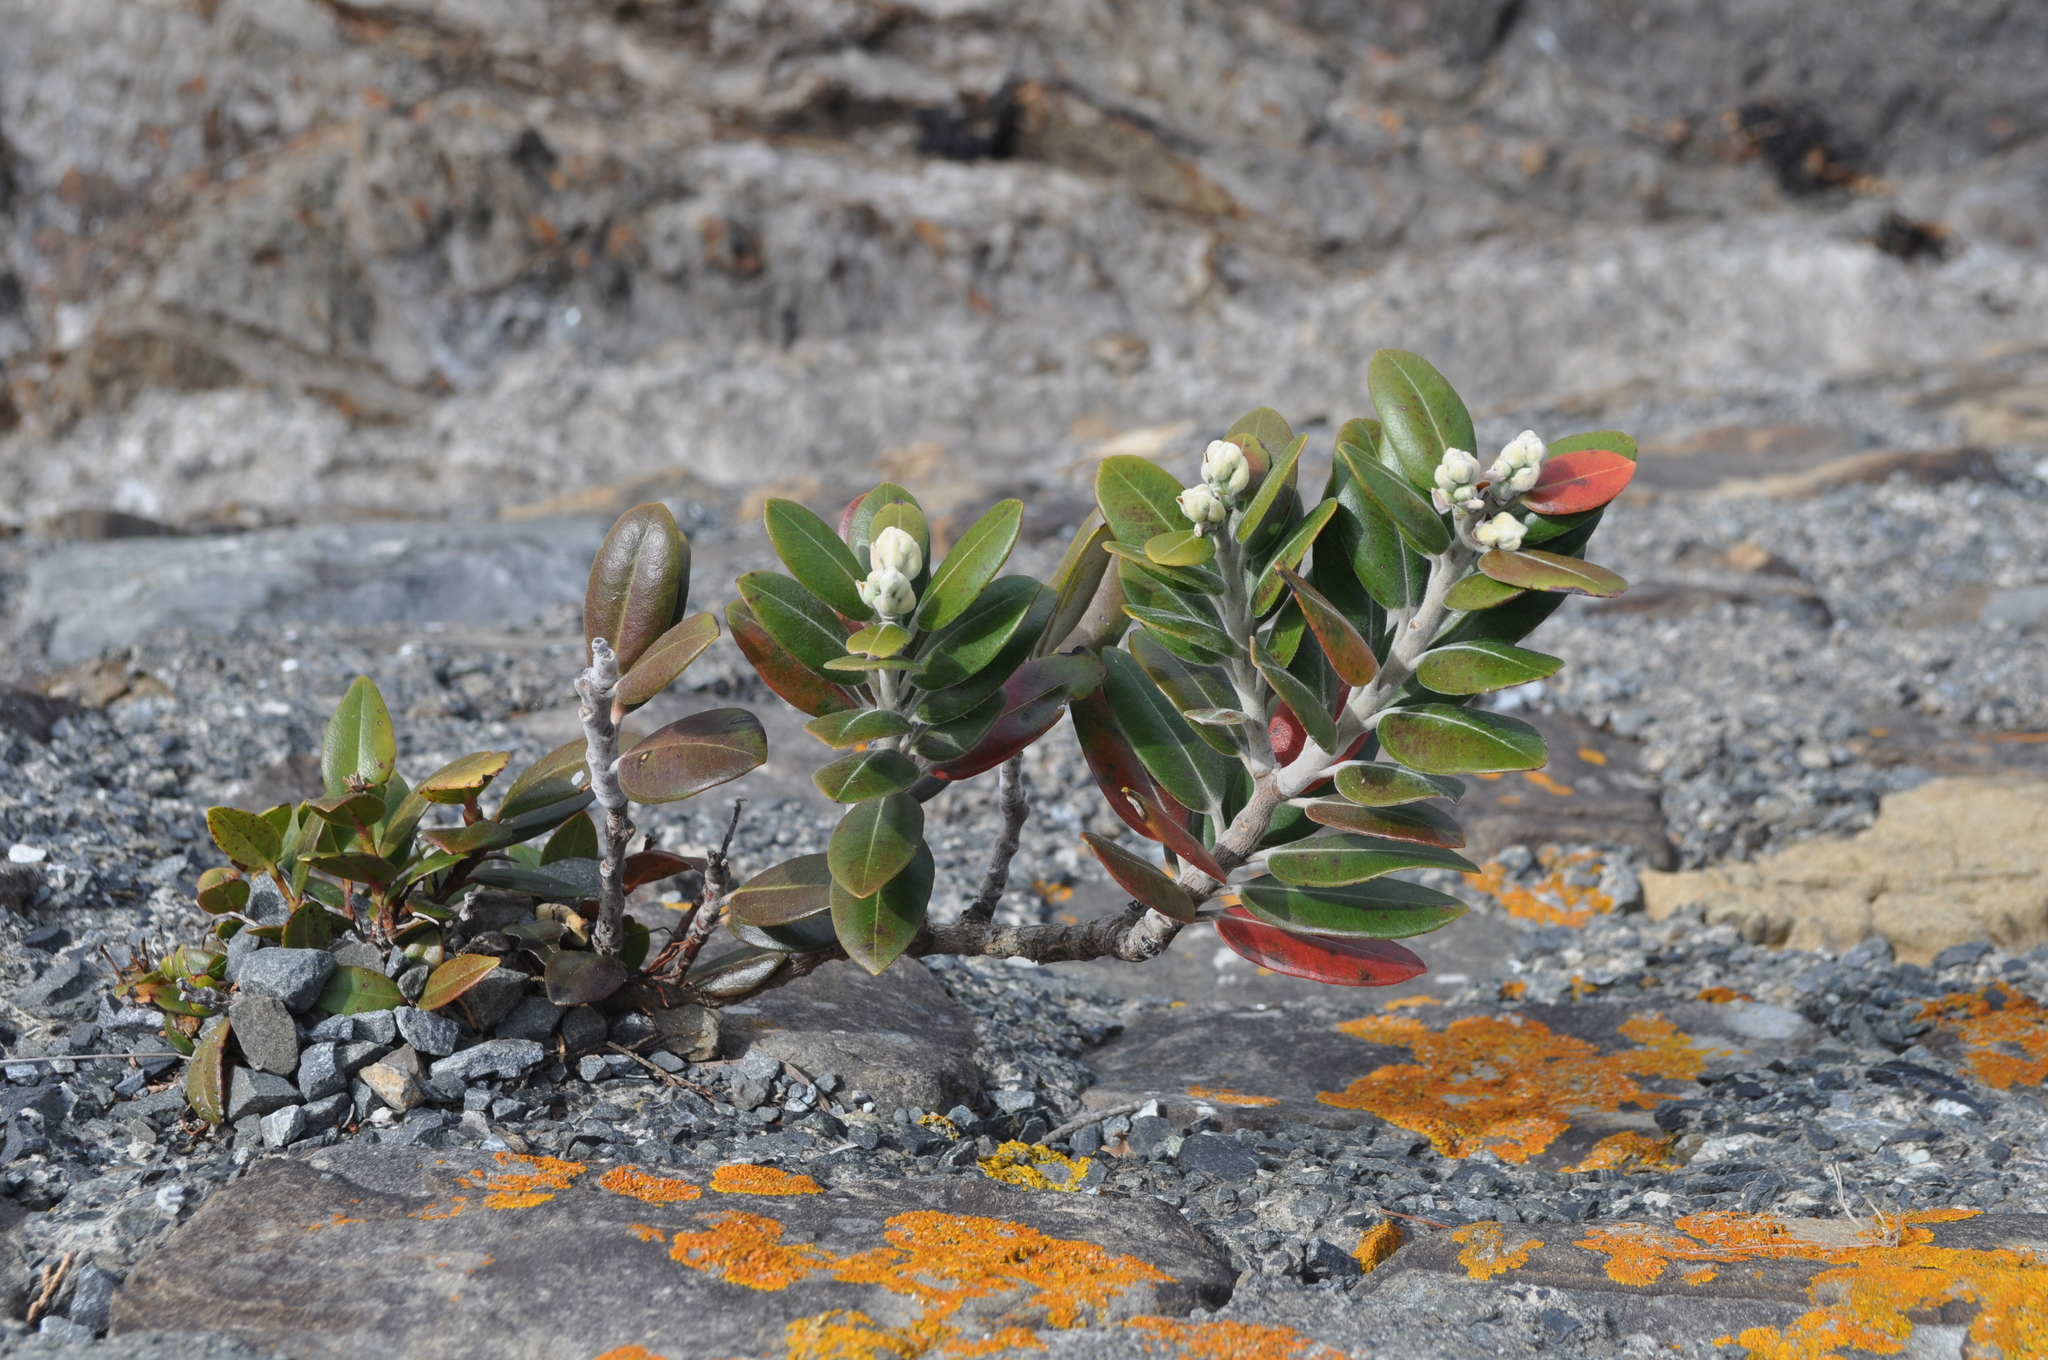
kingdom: Plantae
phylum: Tracheophyta
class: Magnoliopsida
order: Myrtales
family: Myrtaceae
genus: Metrosideros
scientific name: Metrosideros excelsa
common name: New zealand christmastree
